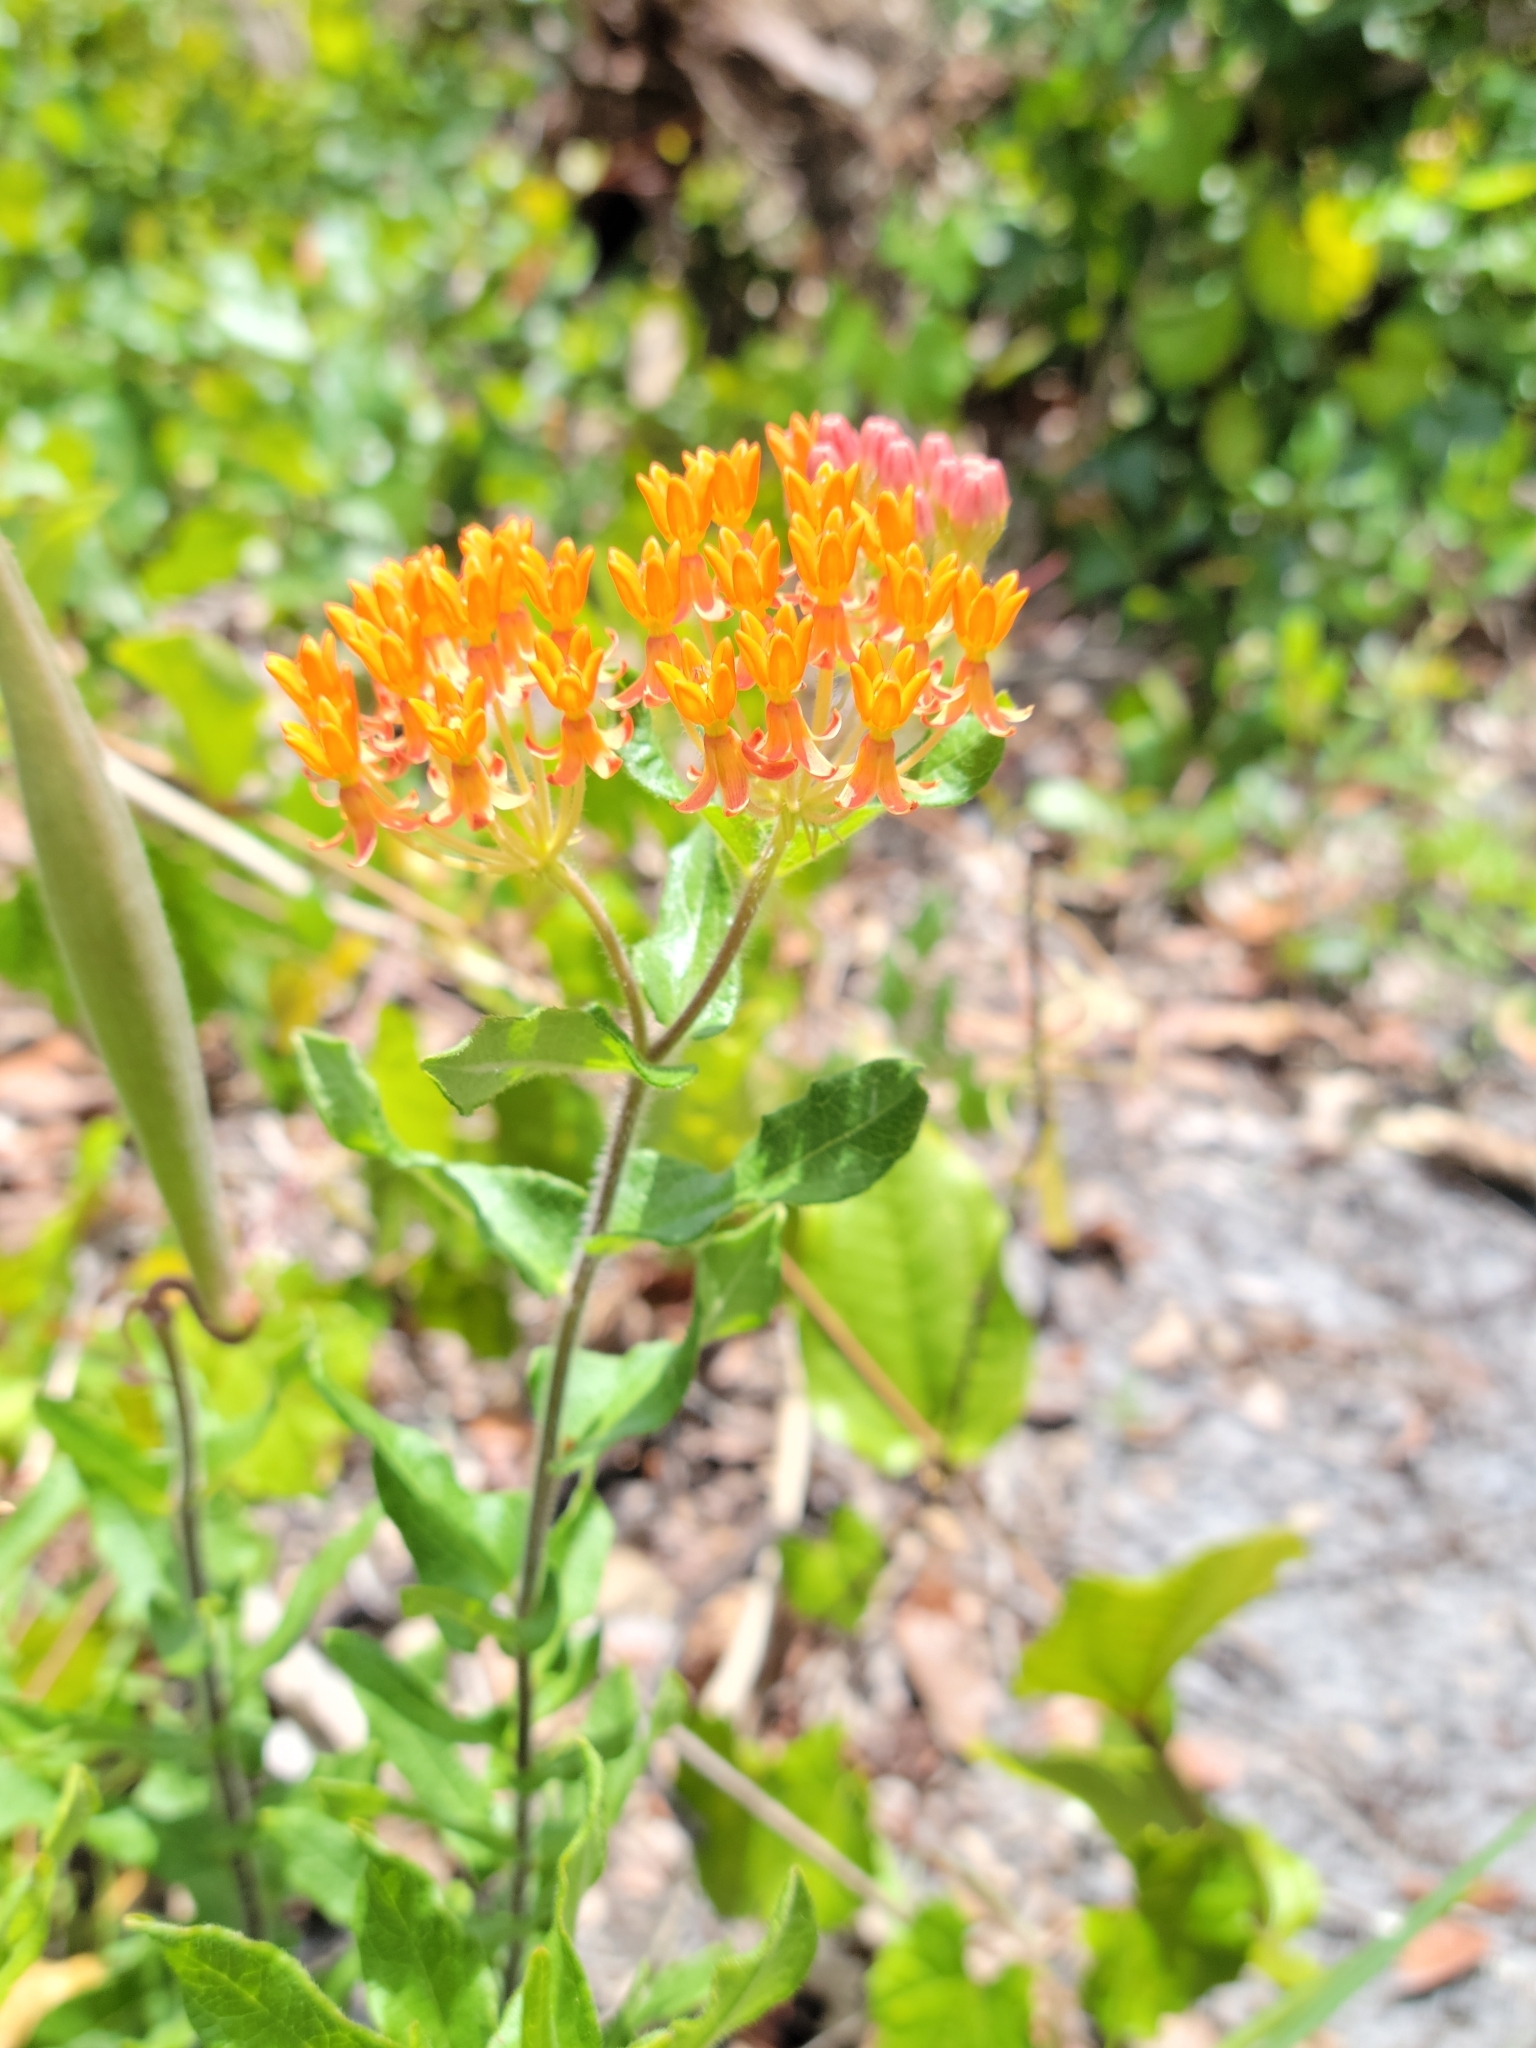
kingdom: Plantae
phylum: Tracheophyta
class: Magnoliopsida
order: Gentianales
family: Apocynaceae
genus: Asclepias
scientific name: Asclepias tuberosa
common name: Butterfly milkweed
